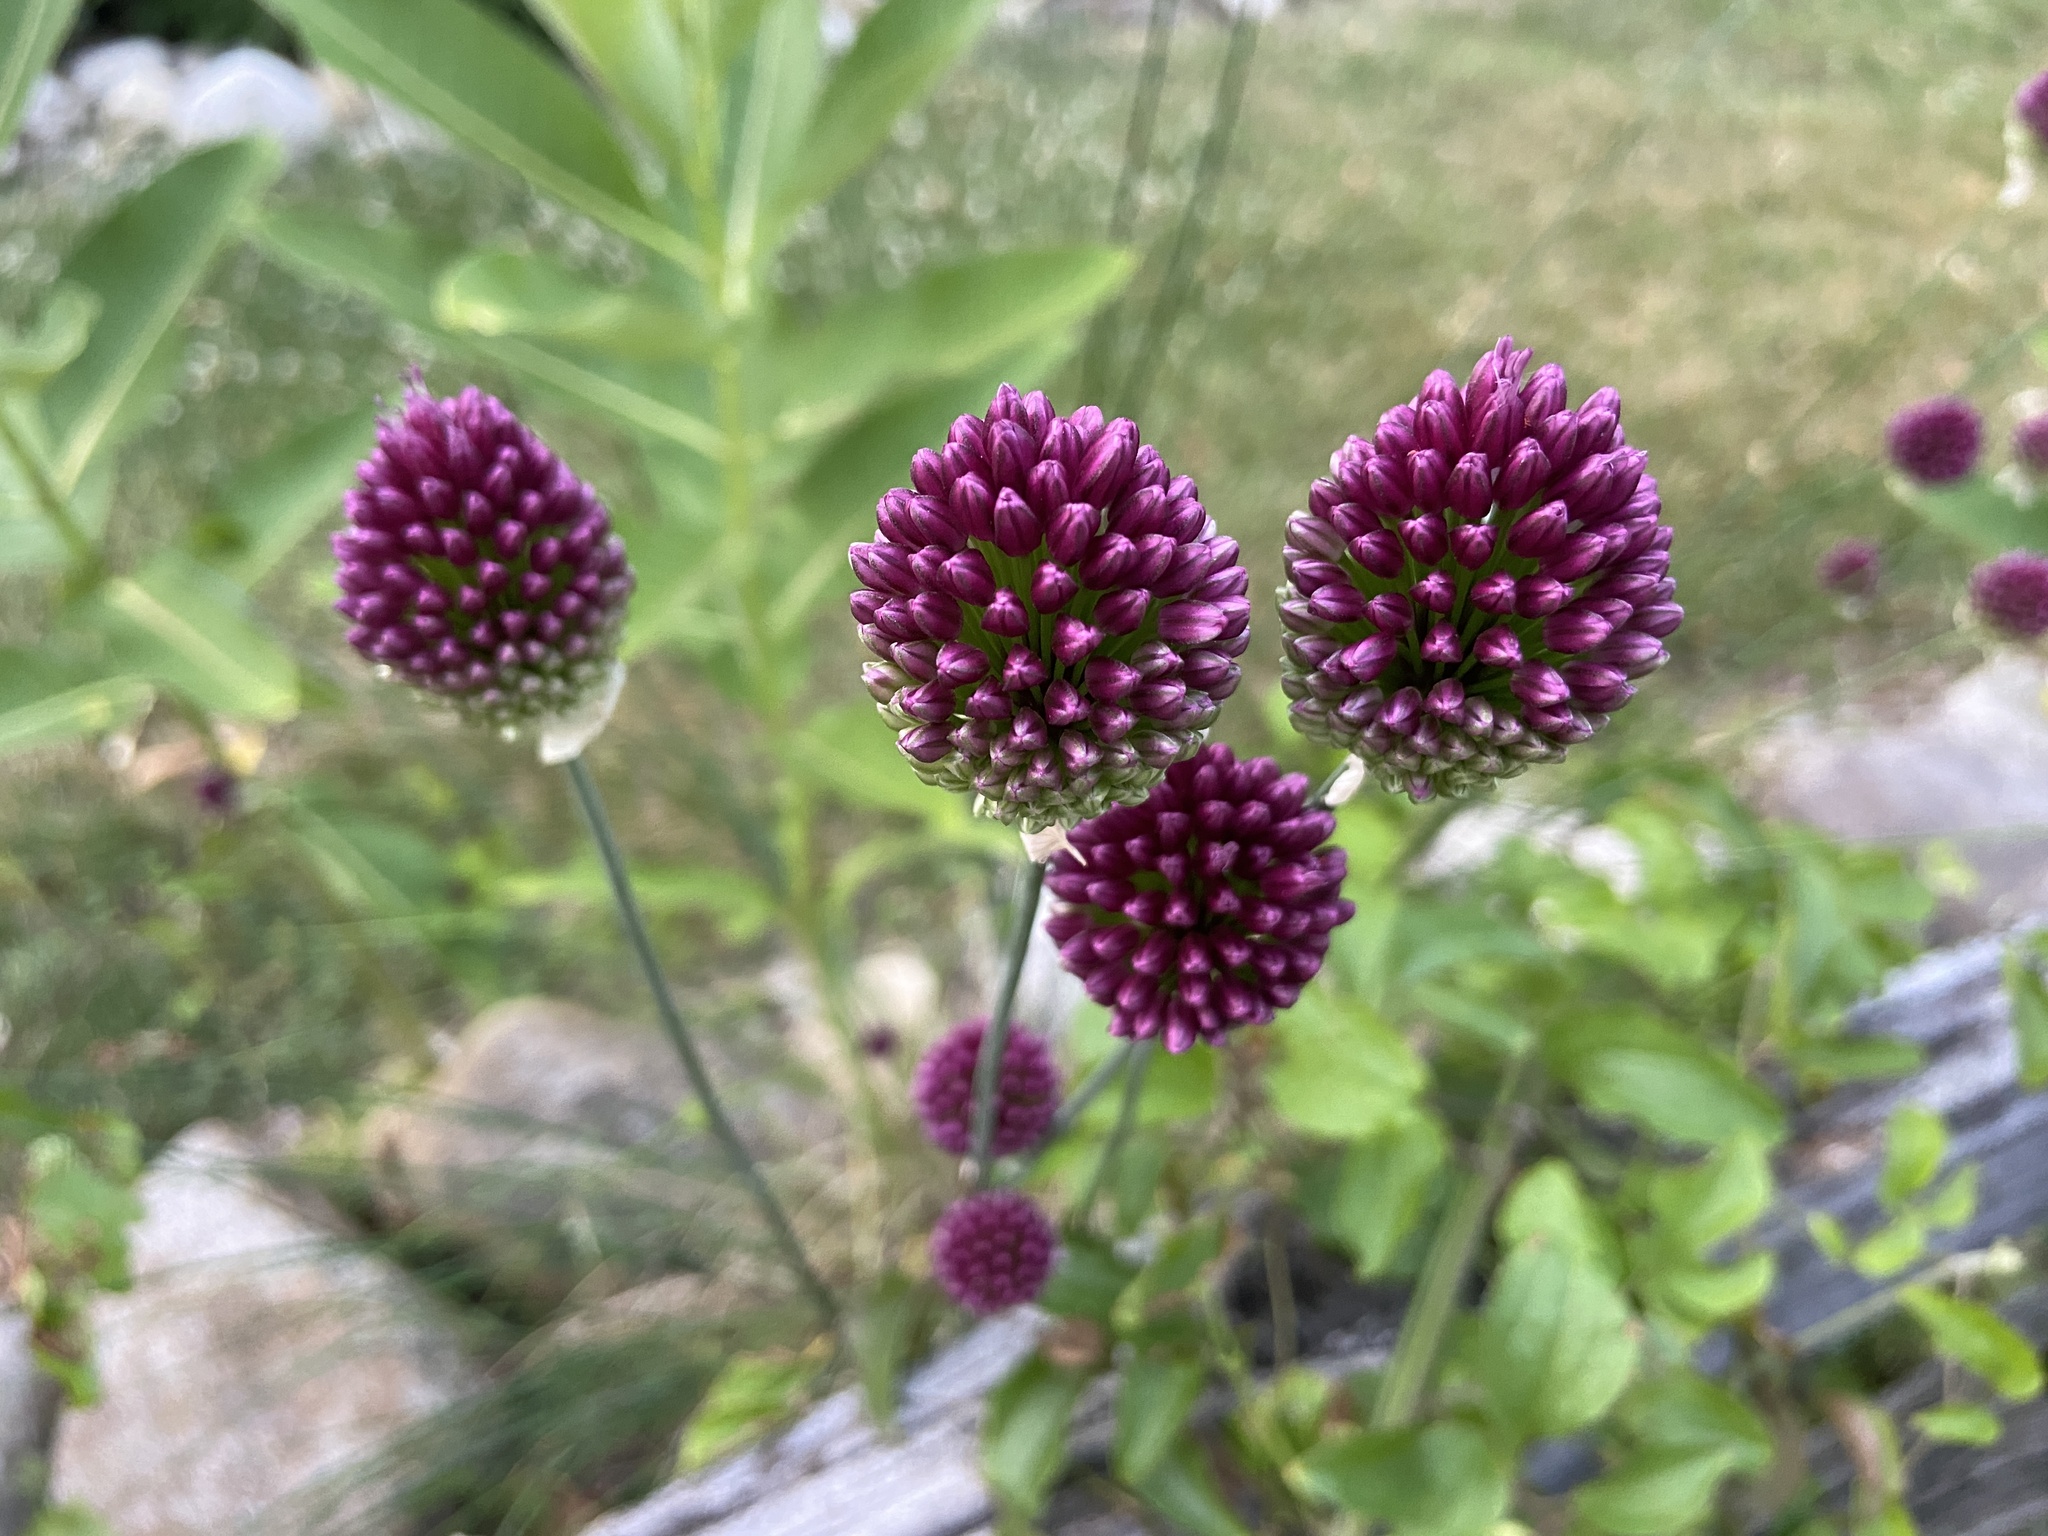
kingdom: Plantae
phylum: Tracheophyta
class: Liliopsida
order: Asparagales
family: Amaryllidaceae
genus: Allium
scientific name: Allium sphaerocephalon
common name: Round-headed leek
